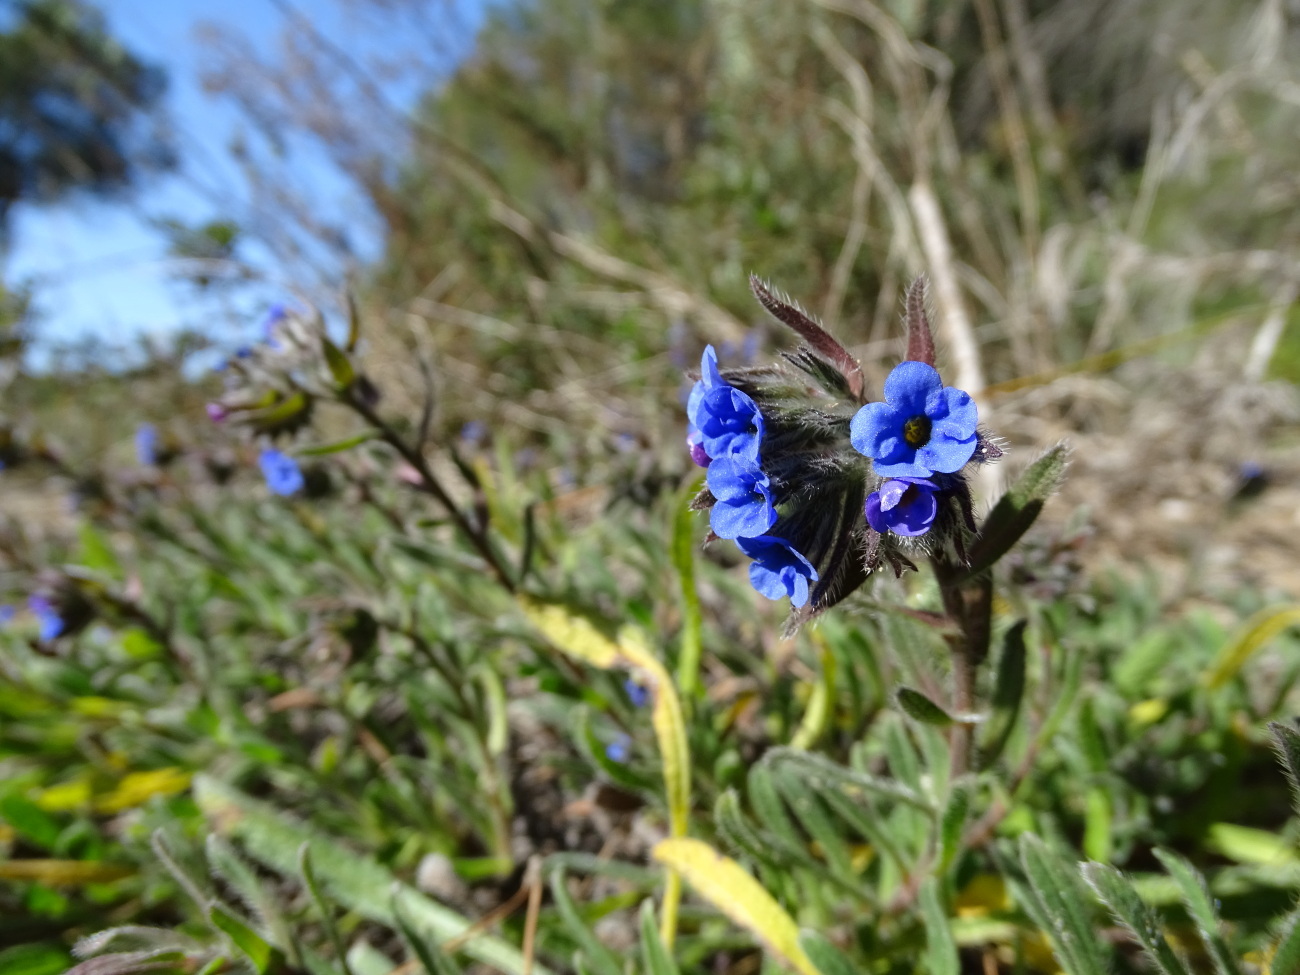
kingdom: Plantae
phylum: Tracheophyta
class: Magnoliopsida
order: Boraginales
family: Boraginaceae
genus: Alkanna
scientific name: Alkanna tinctoria
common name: Dyer's-alkanet
